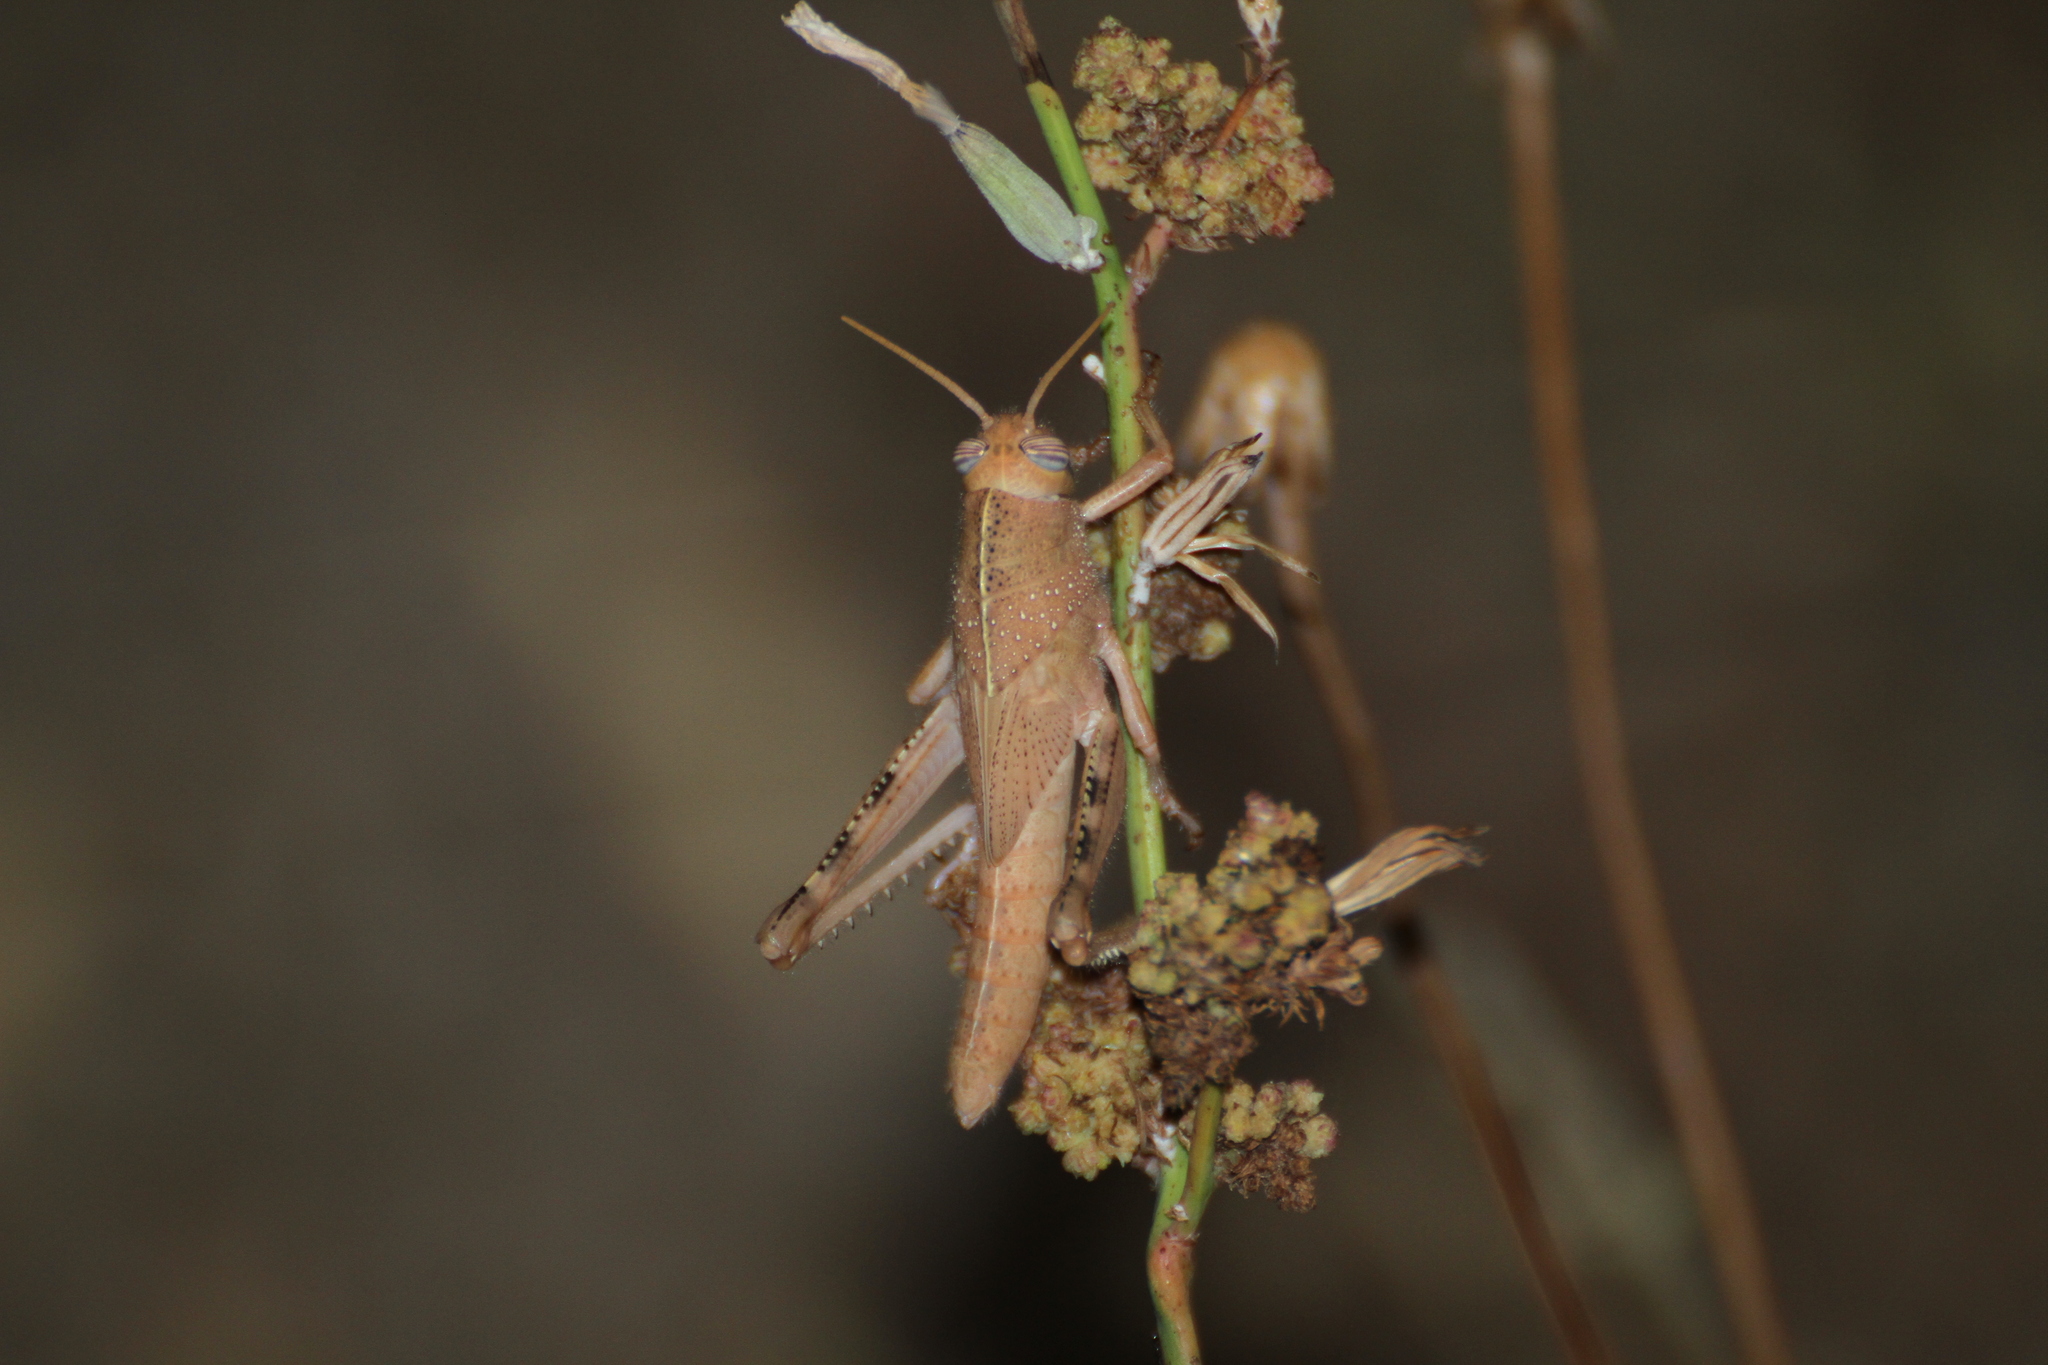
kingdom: Animalia
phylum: Arthropoda
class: Insecta
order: Orthoptera
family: Acrididae
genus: Anacridium
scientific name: Anacridium aegyptium
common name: Egyptian grasshopper
